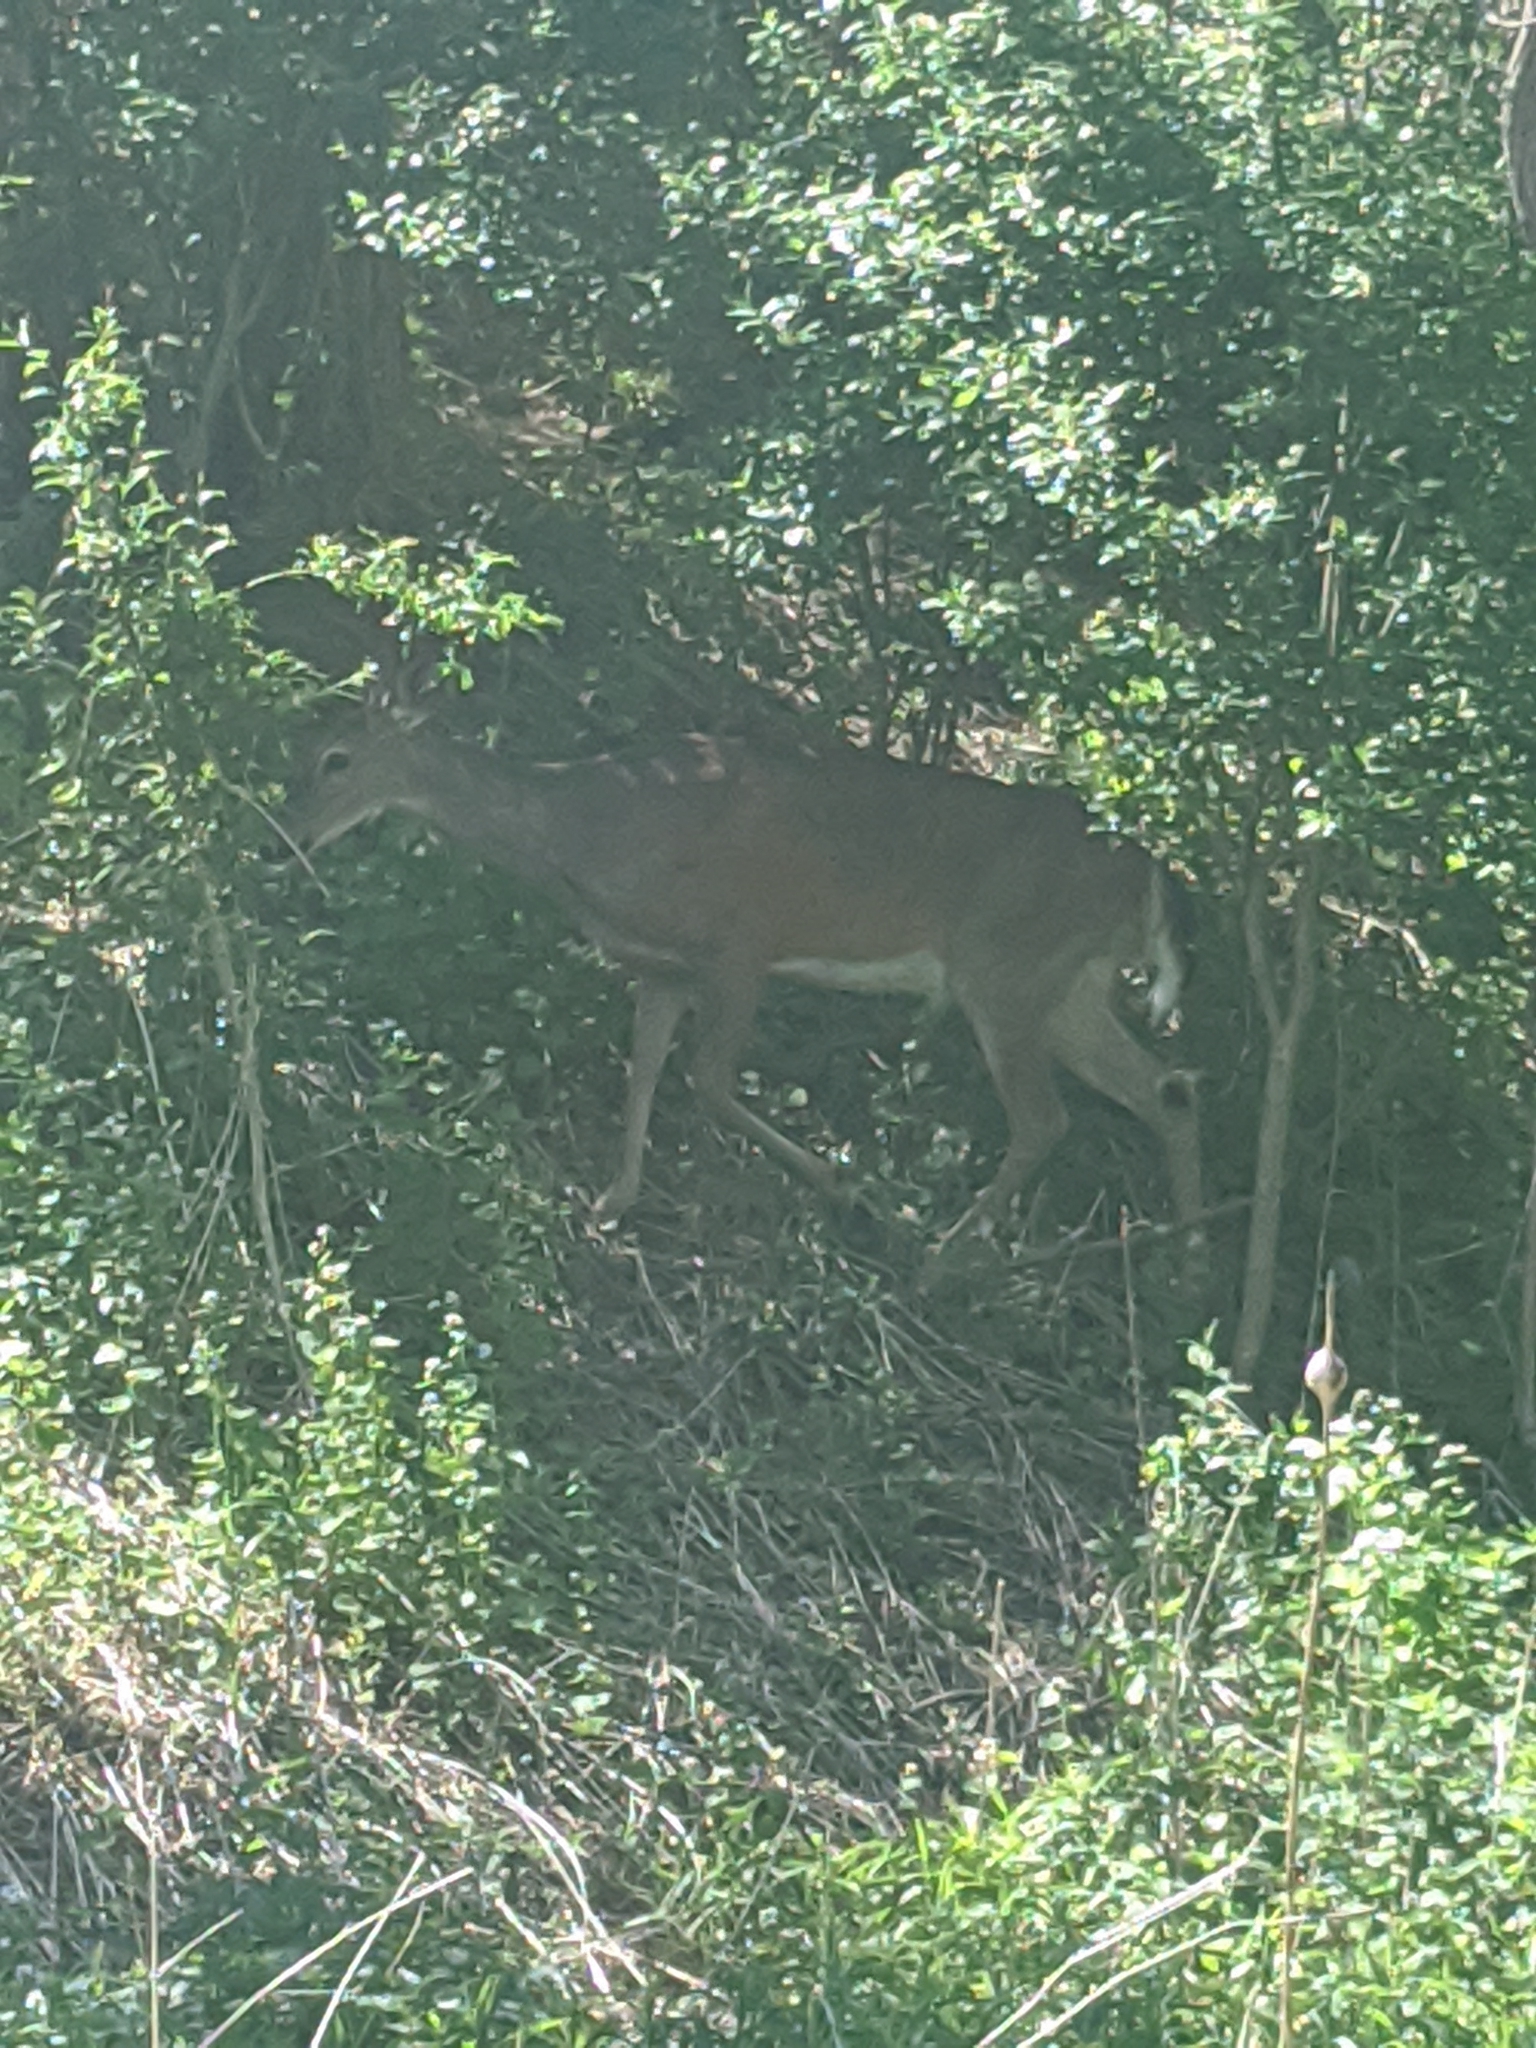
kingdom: Animalia
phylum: Chordata
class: Mammalia
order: Artiodactyla
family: Cervidae
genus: Odocoileus
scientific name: Odocoileus virginianus
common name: White-tailed deer
